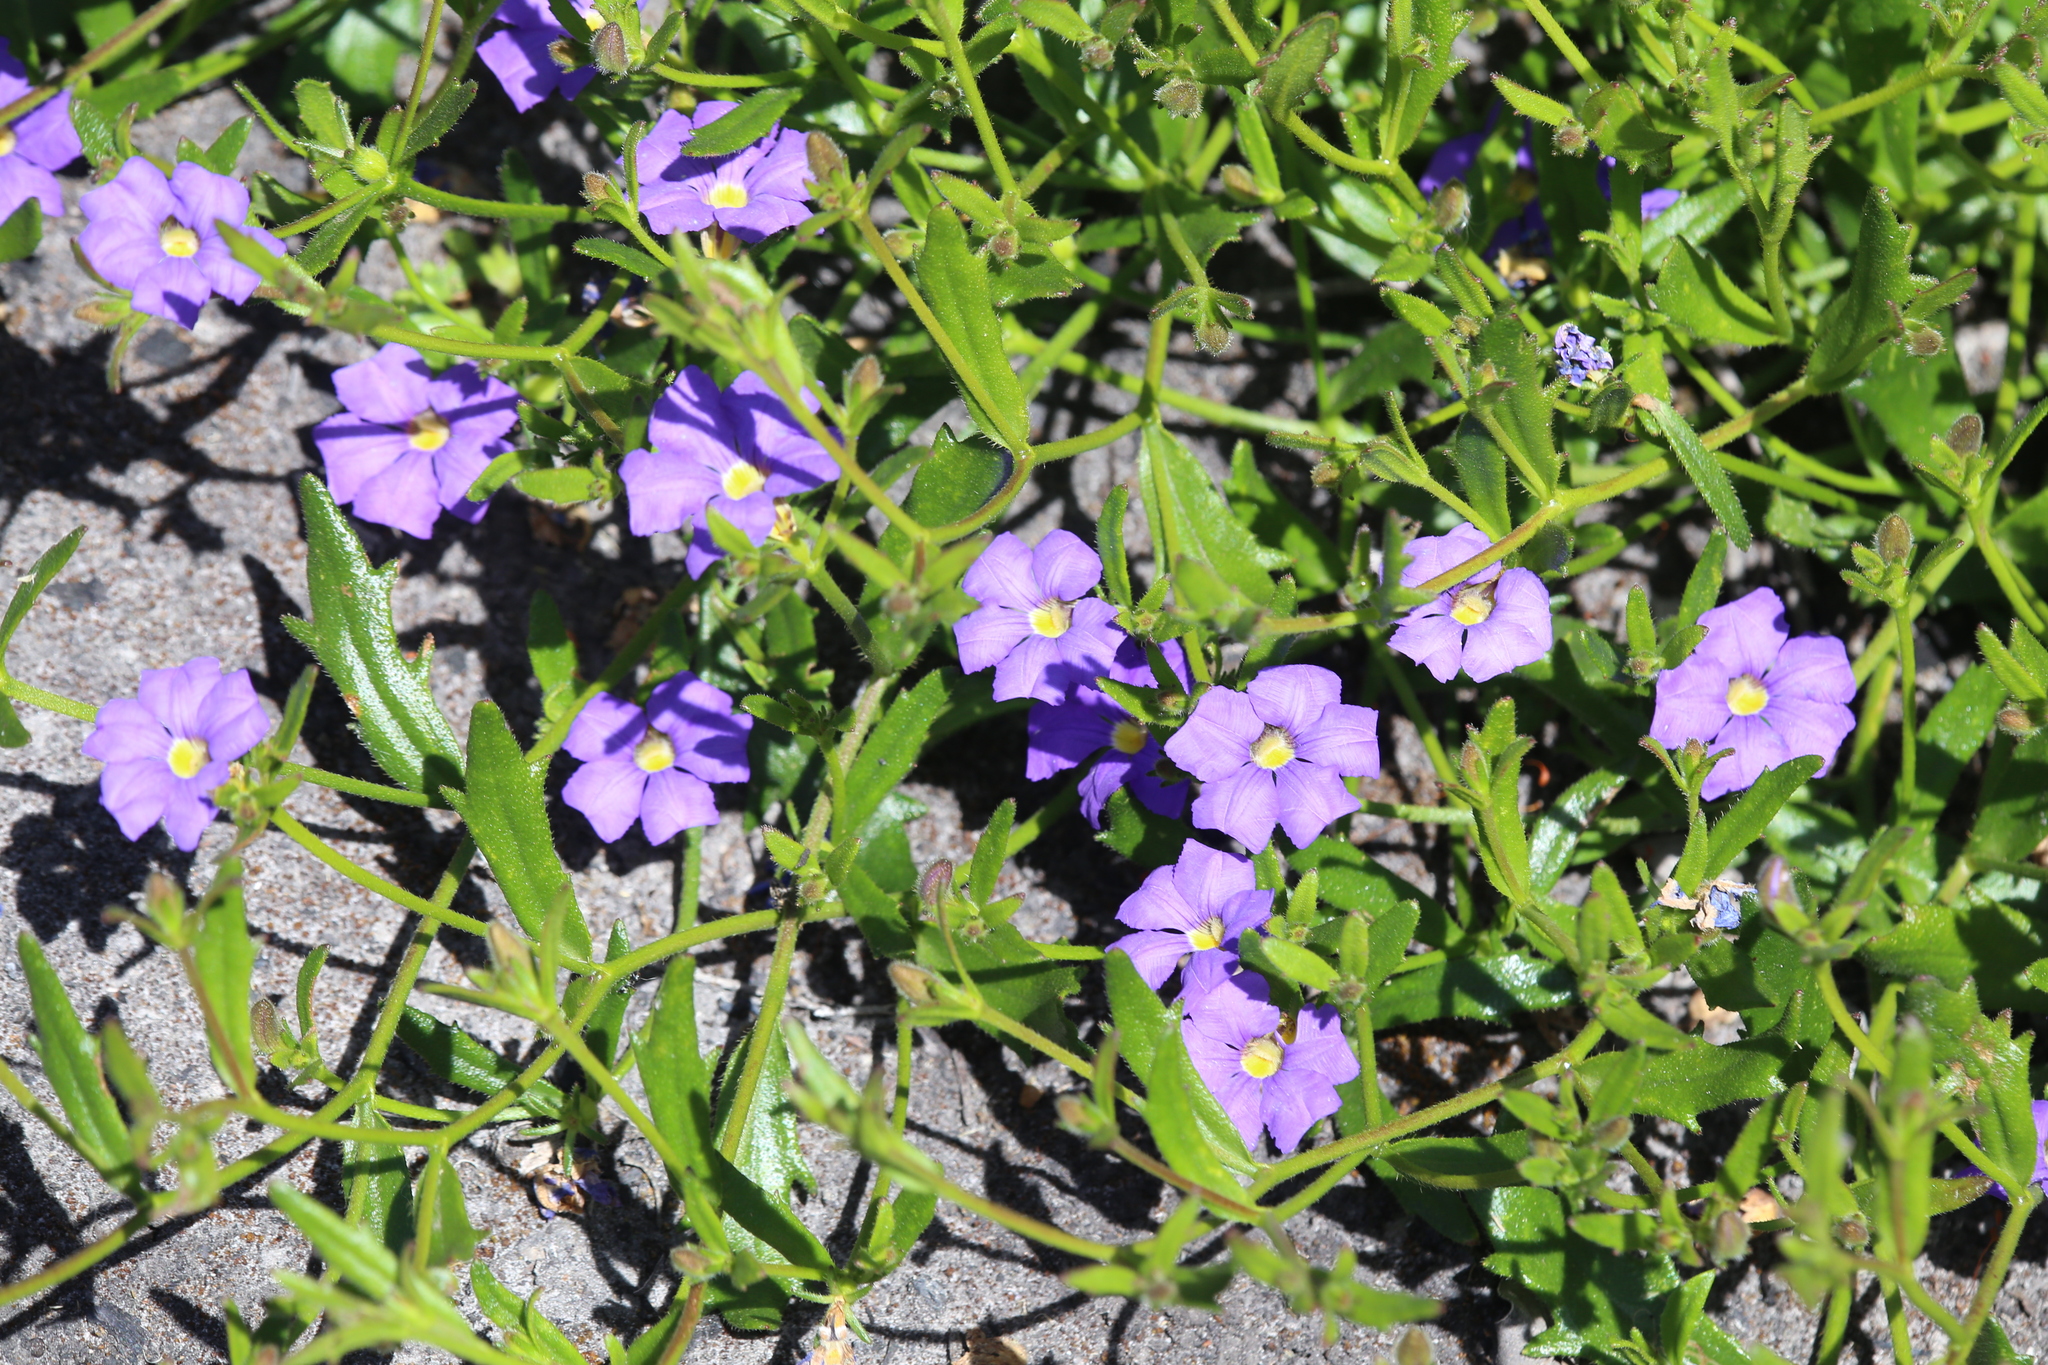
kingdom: Plantae
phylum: Tracheophyta
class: Magnoliopsida
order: Asterales
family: Goodeniaceae
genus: Scaevola
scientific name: Scaevola striata
